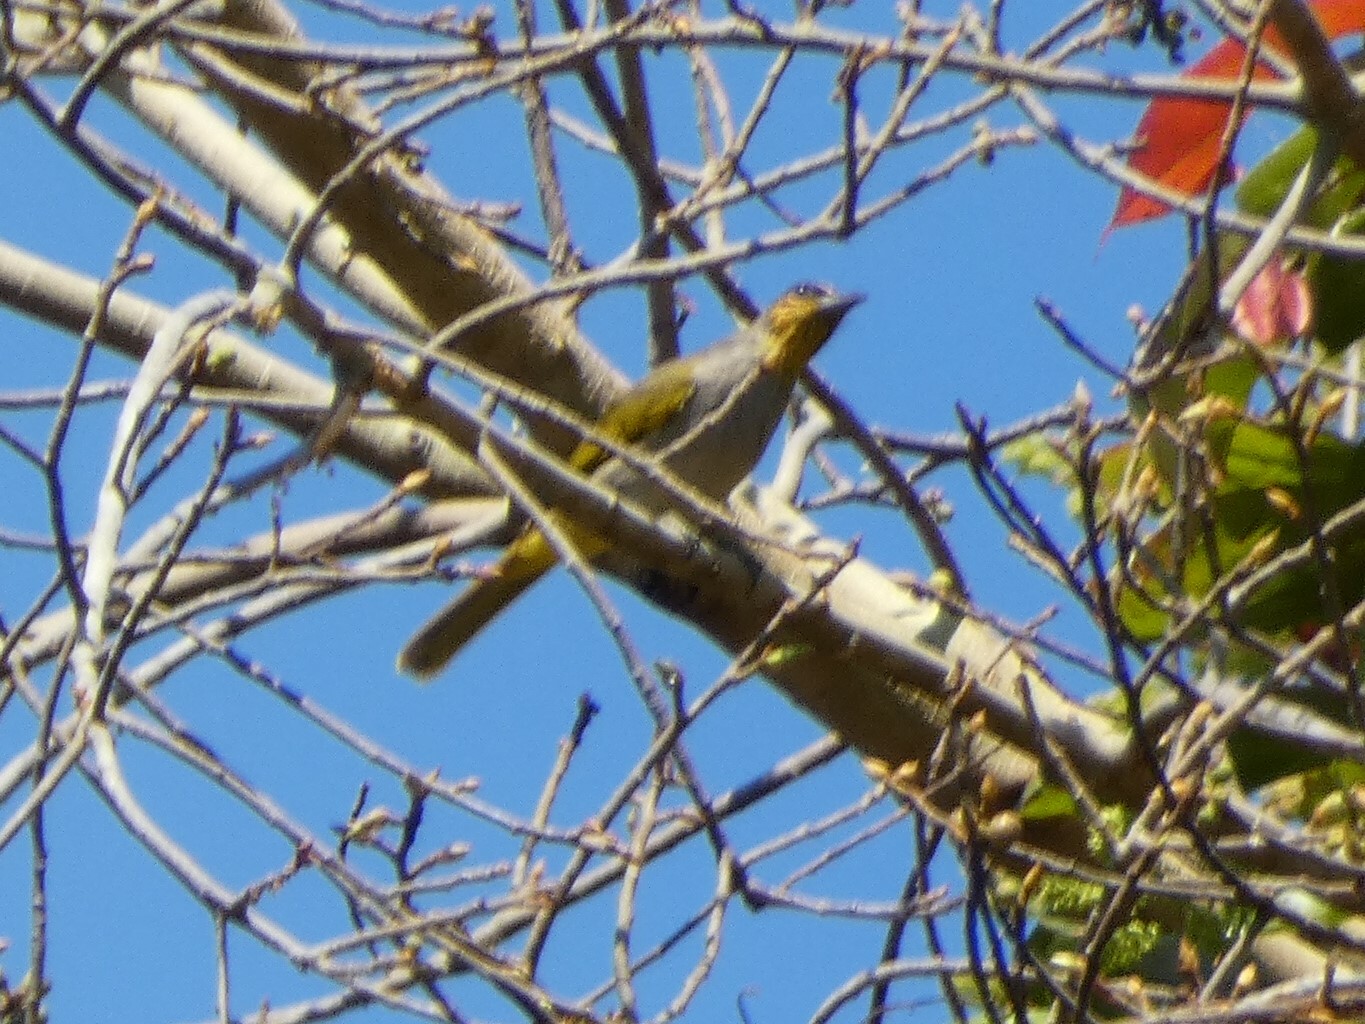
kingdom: Animalia
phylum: Chordata
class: Aves
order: Passeriformes
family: Pycnonotidae
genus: Pycnonotus
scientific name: Pycnonotus finlaysoni
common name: Stripe-throated bulbul
